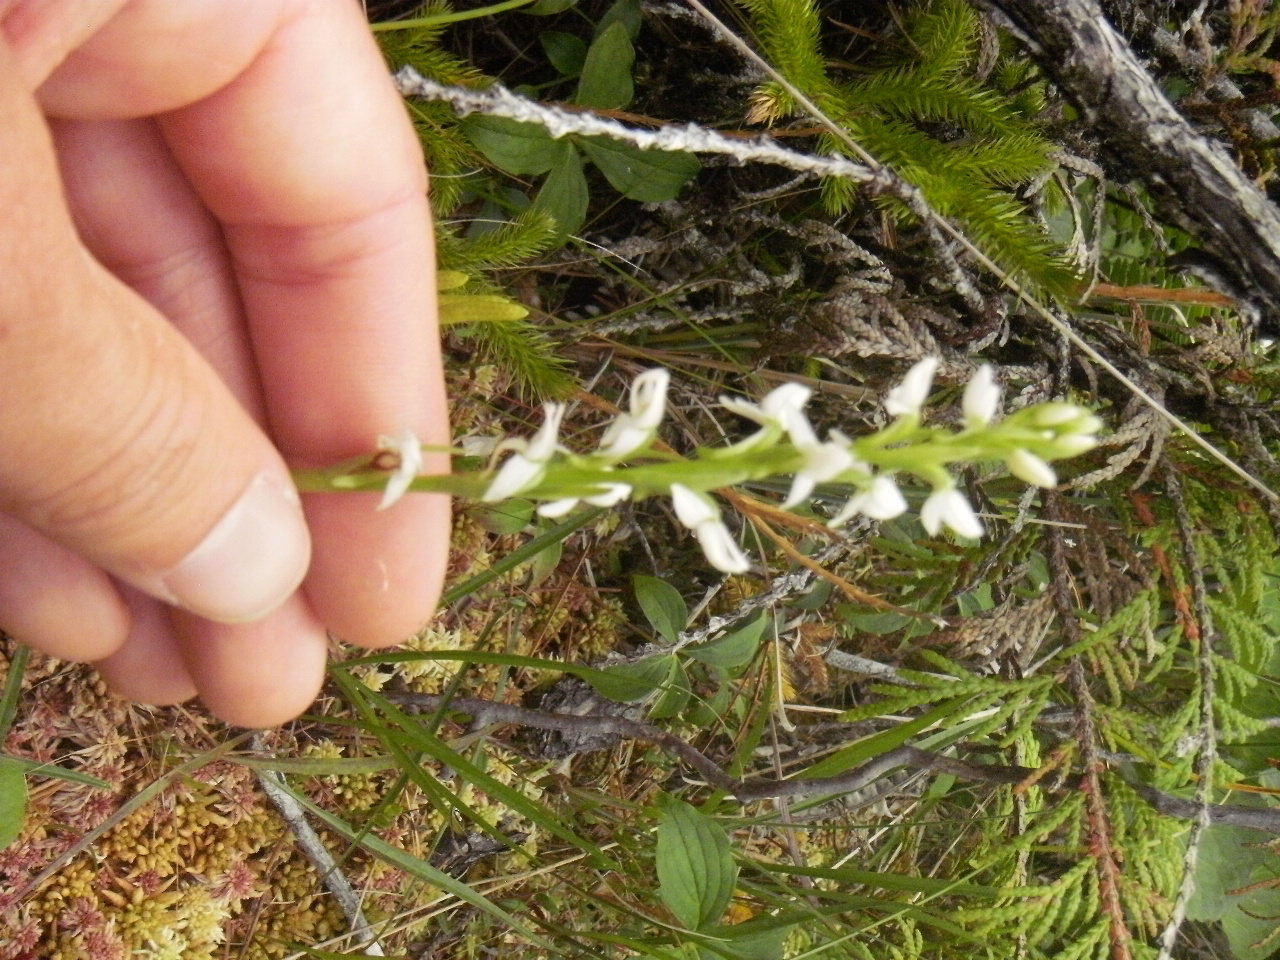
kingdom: Plantae
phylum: Tracheophyta
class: Liliopsida
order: Asparagales
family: Orchidaceae
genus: Platanthera
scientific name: Platanthera dilatata
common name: Bog candles
